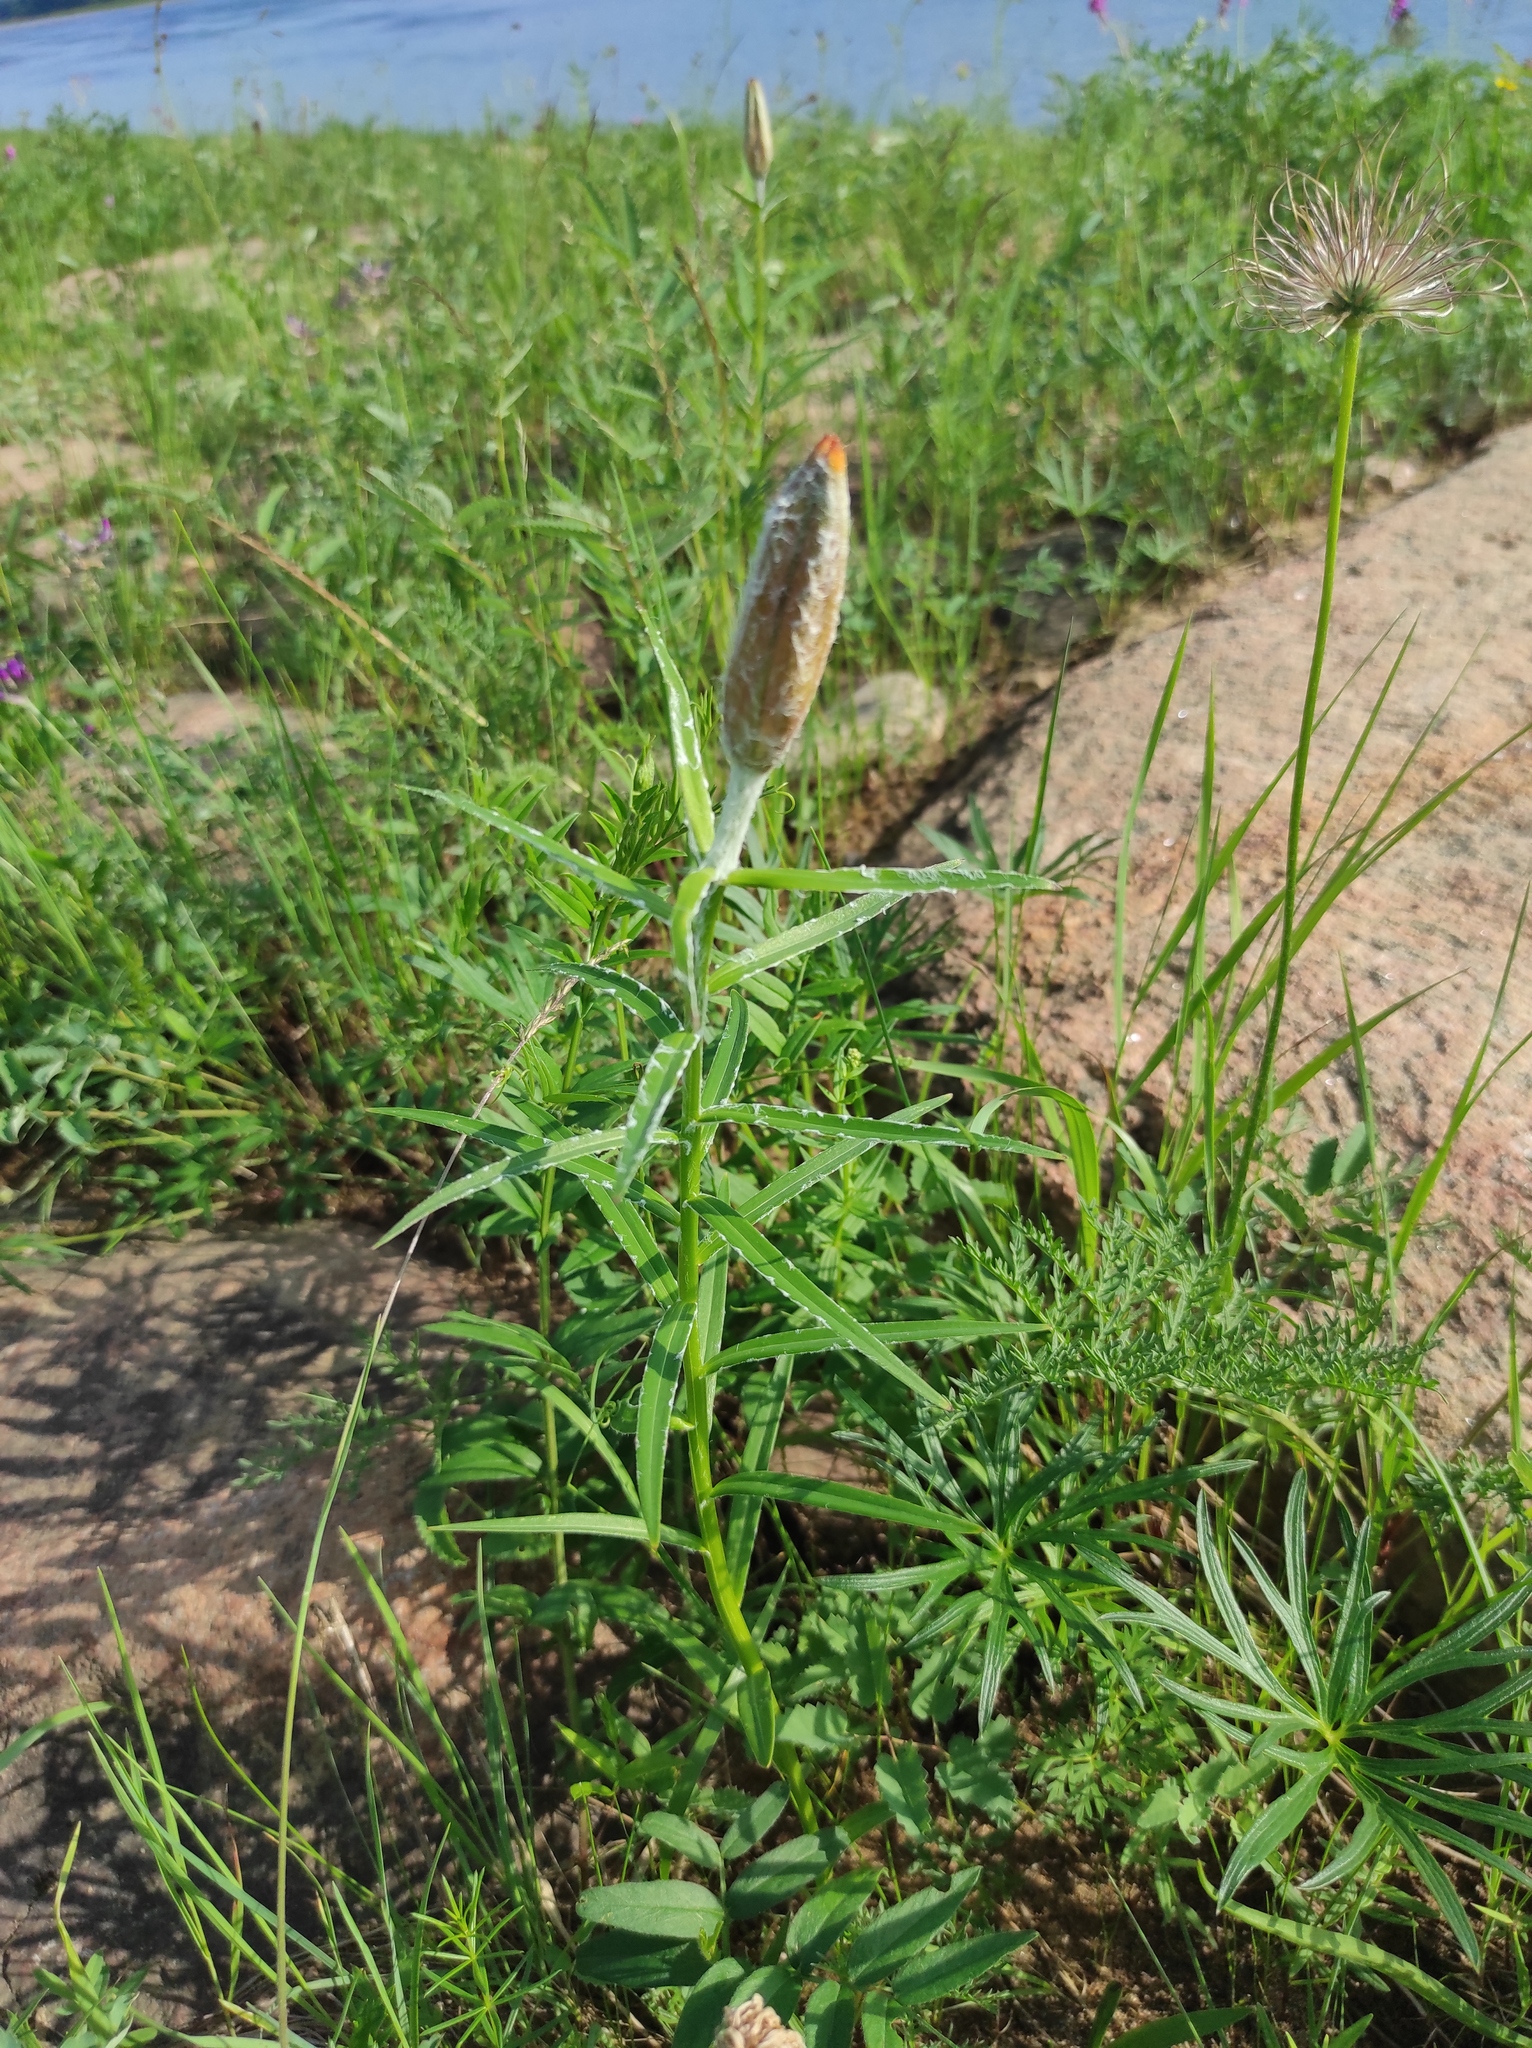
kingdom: Plantae
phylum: Tracheophyta
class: Liliopsida
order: Liliales
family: Liliaceae
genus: Lilium
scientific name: Lilium pensylvanicum
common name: Candlestick lily
